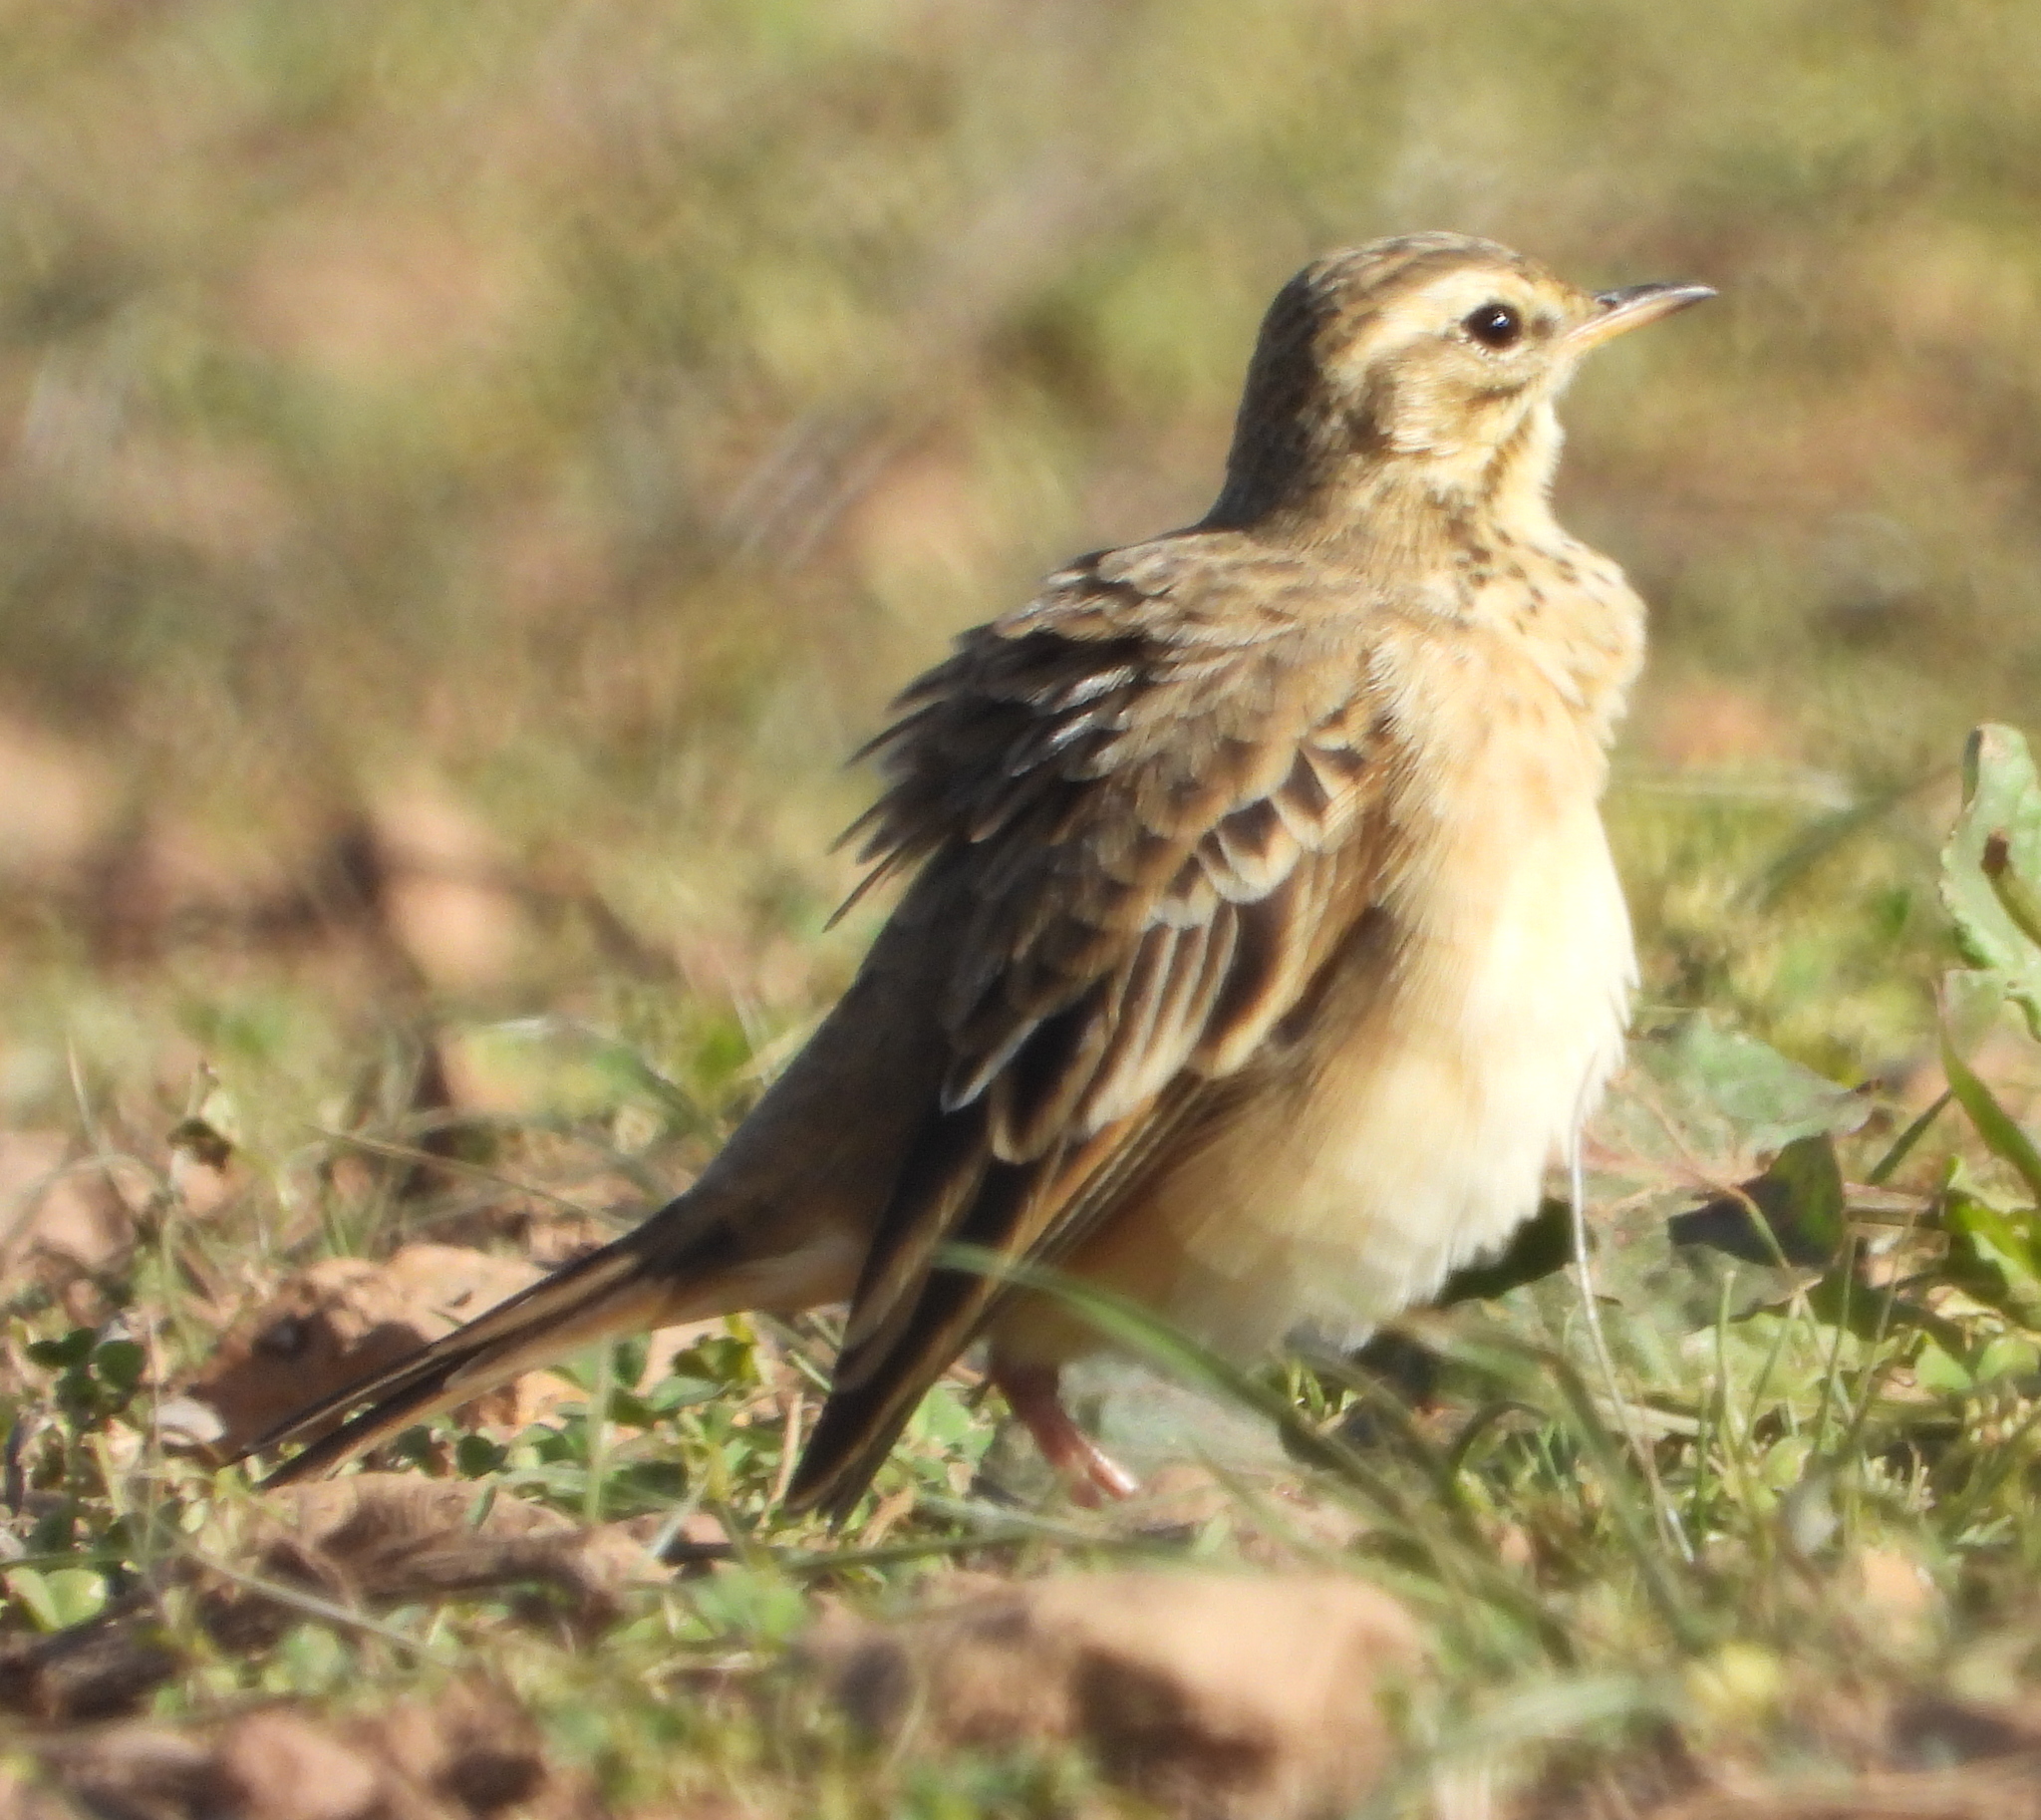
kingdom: Animalia
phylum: Chordata
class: Aves
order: Passeriformes
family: Motacillidae
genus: Anthus
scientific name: Anthus cinnamomeus
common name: African pipit
